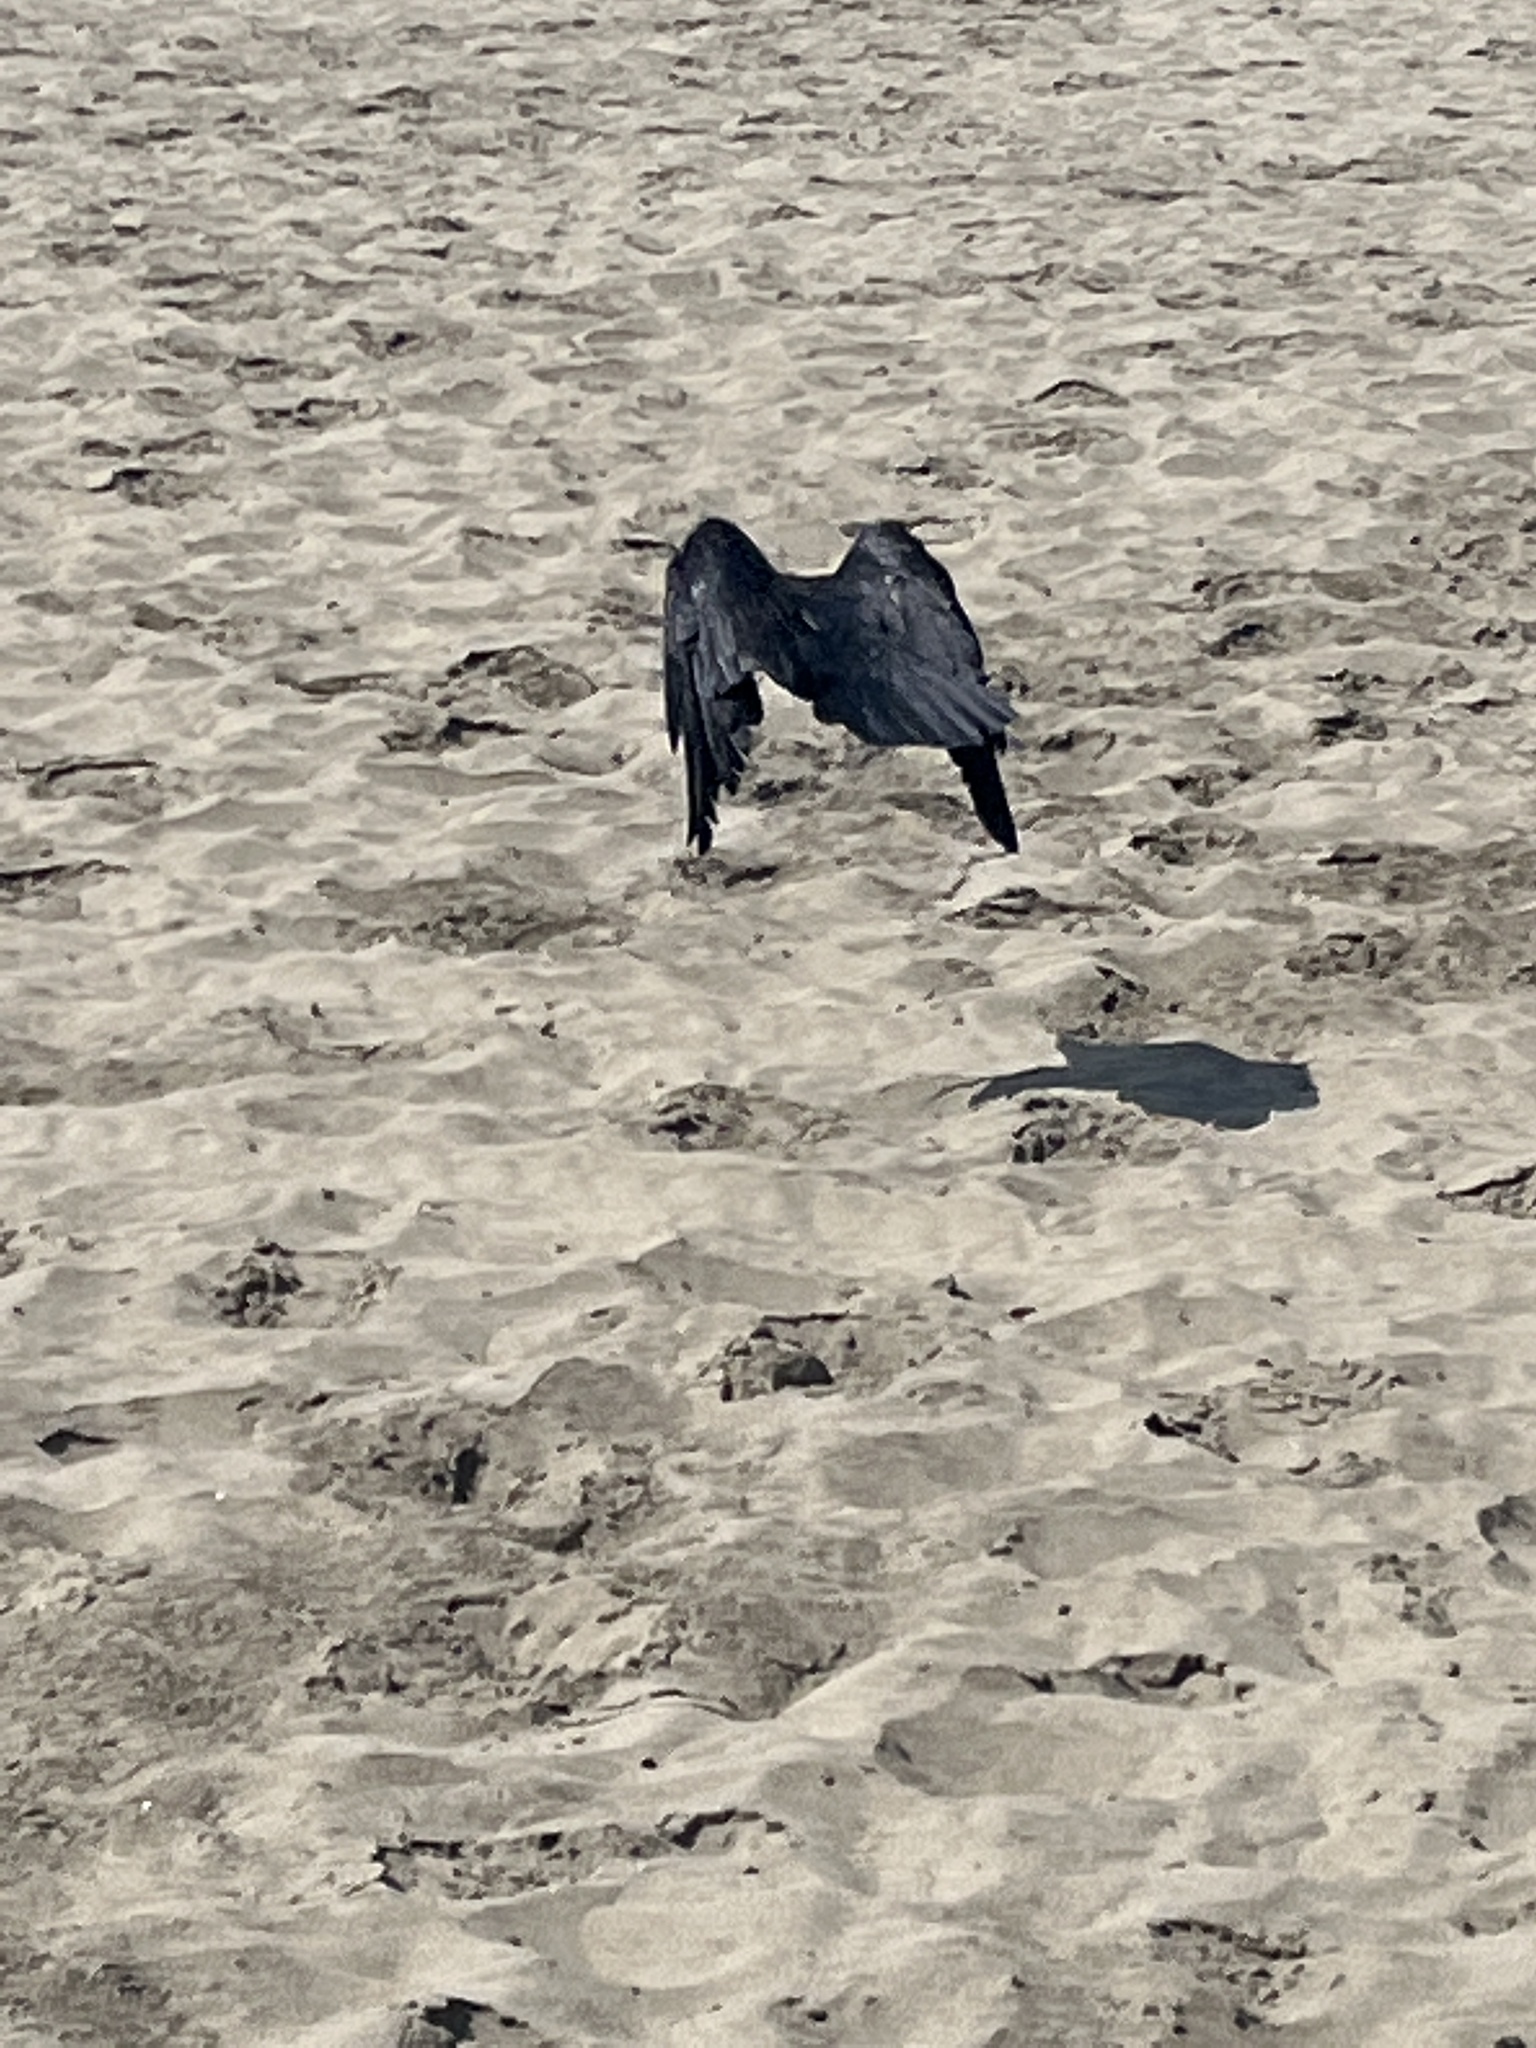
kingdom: Animalia
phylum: Chordata
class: Aves
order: Passeriformes
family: Corvidae
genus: Corvus
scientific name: Corvus corax
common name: Common raven
